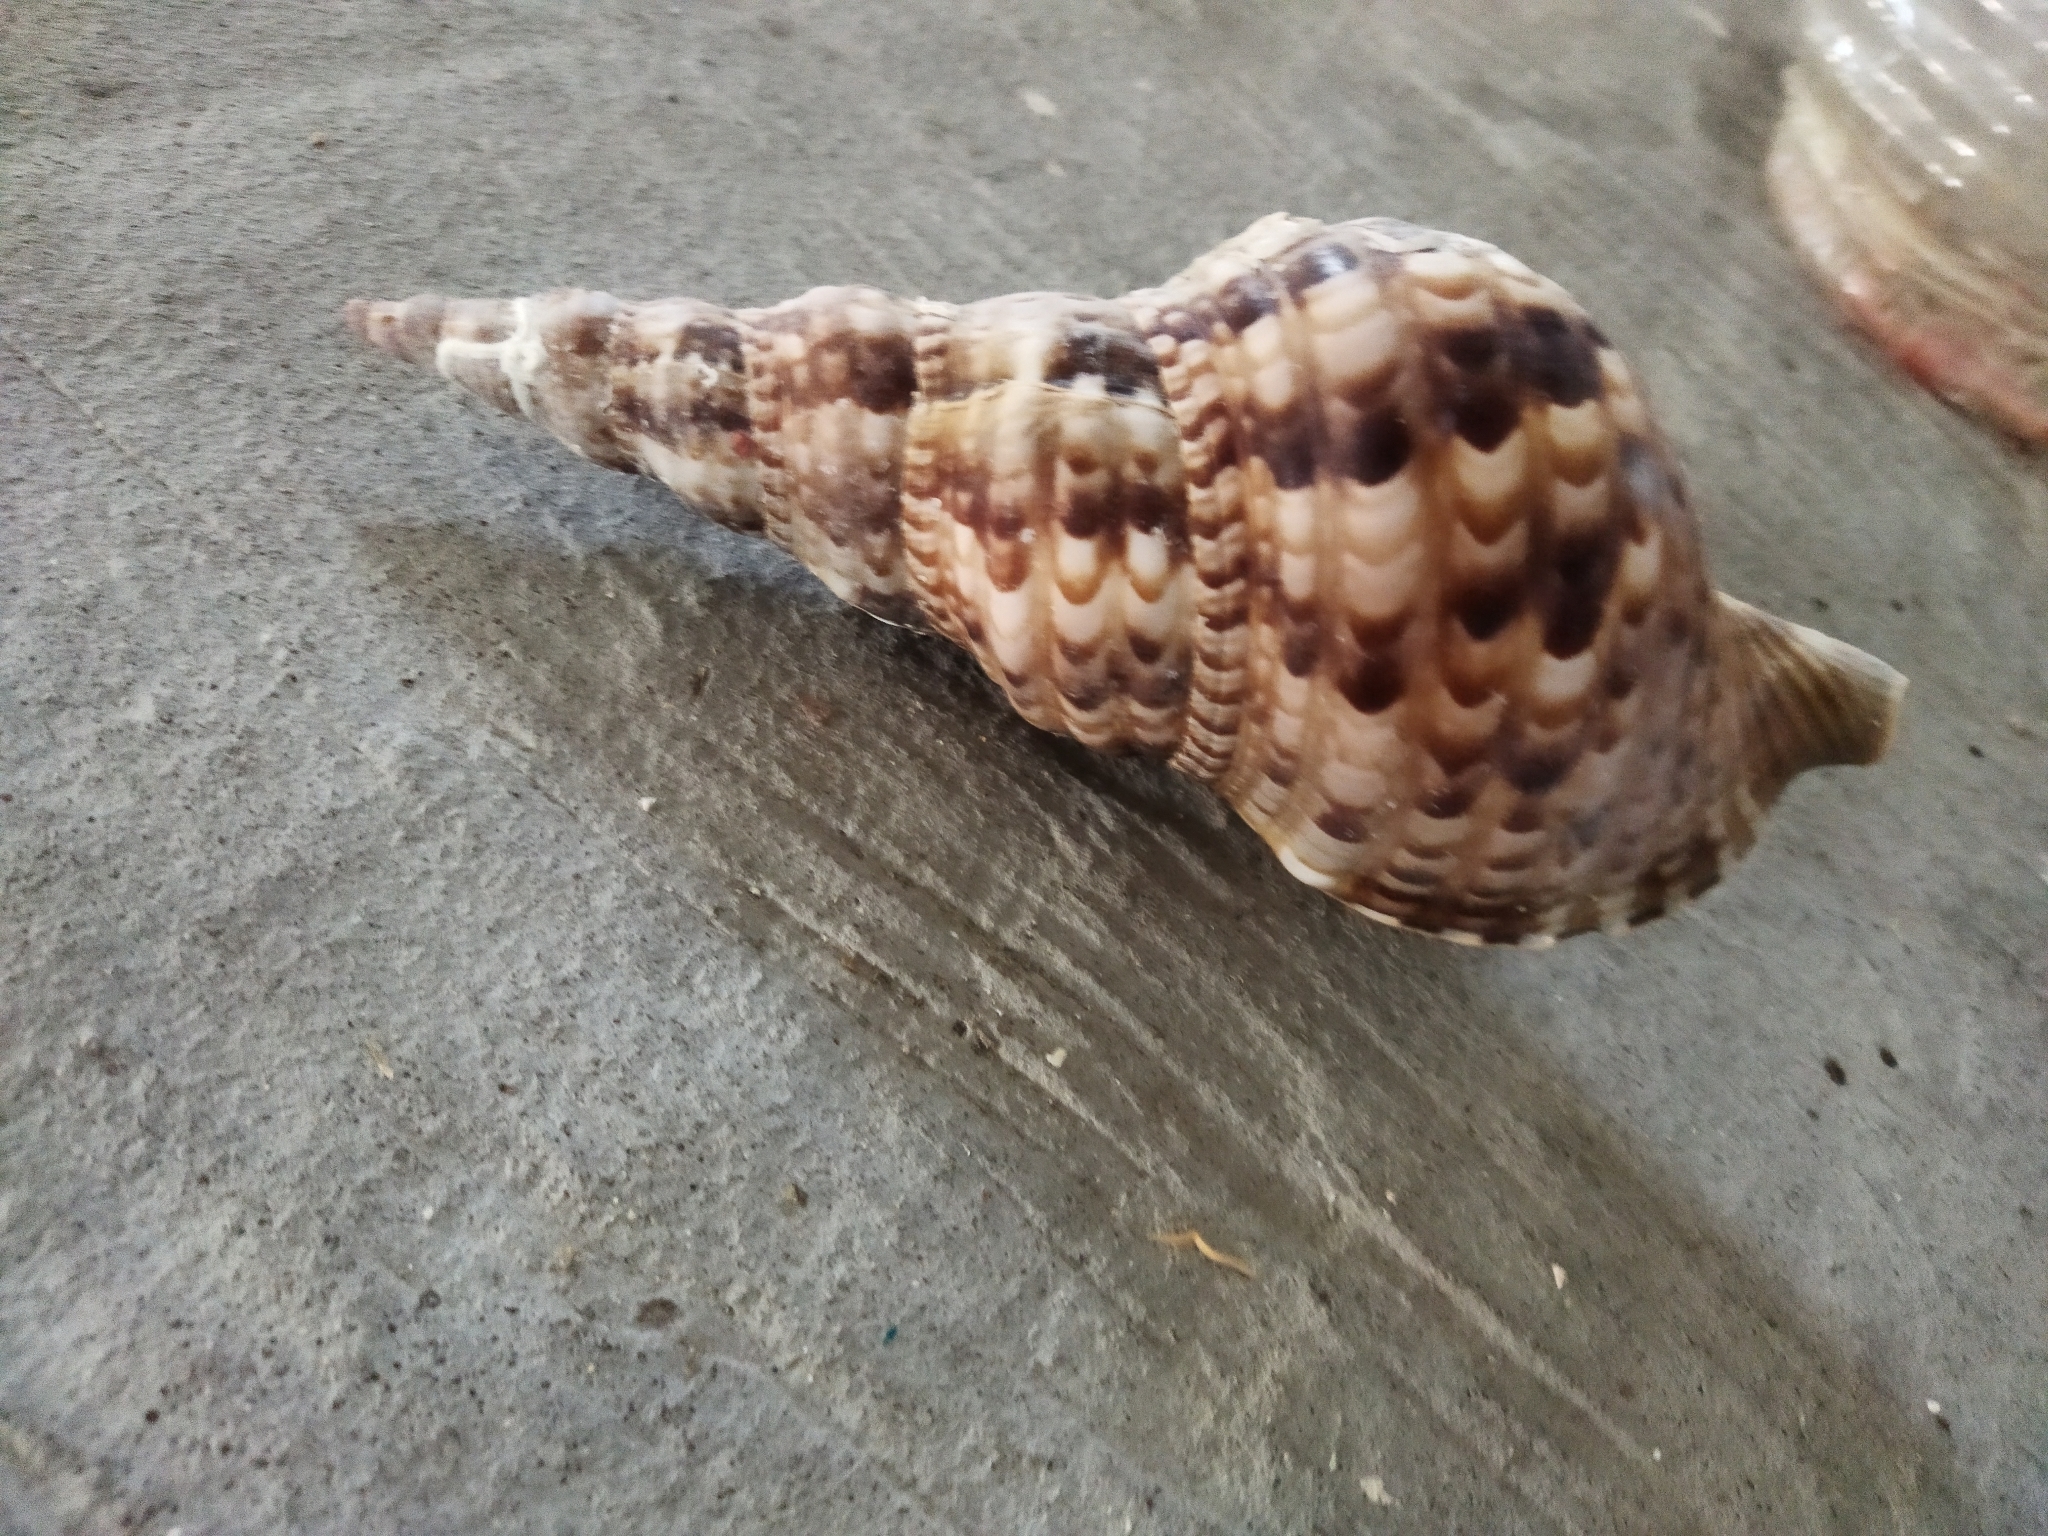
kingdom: Animalia
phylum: Mollusca
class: Gastropoda
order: Littorinimorpha
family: Charoniidae
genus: Charonia
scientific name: Charonia variegata
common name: Atlantic triton
